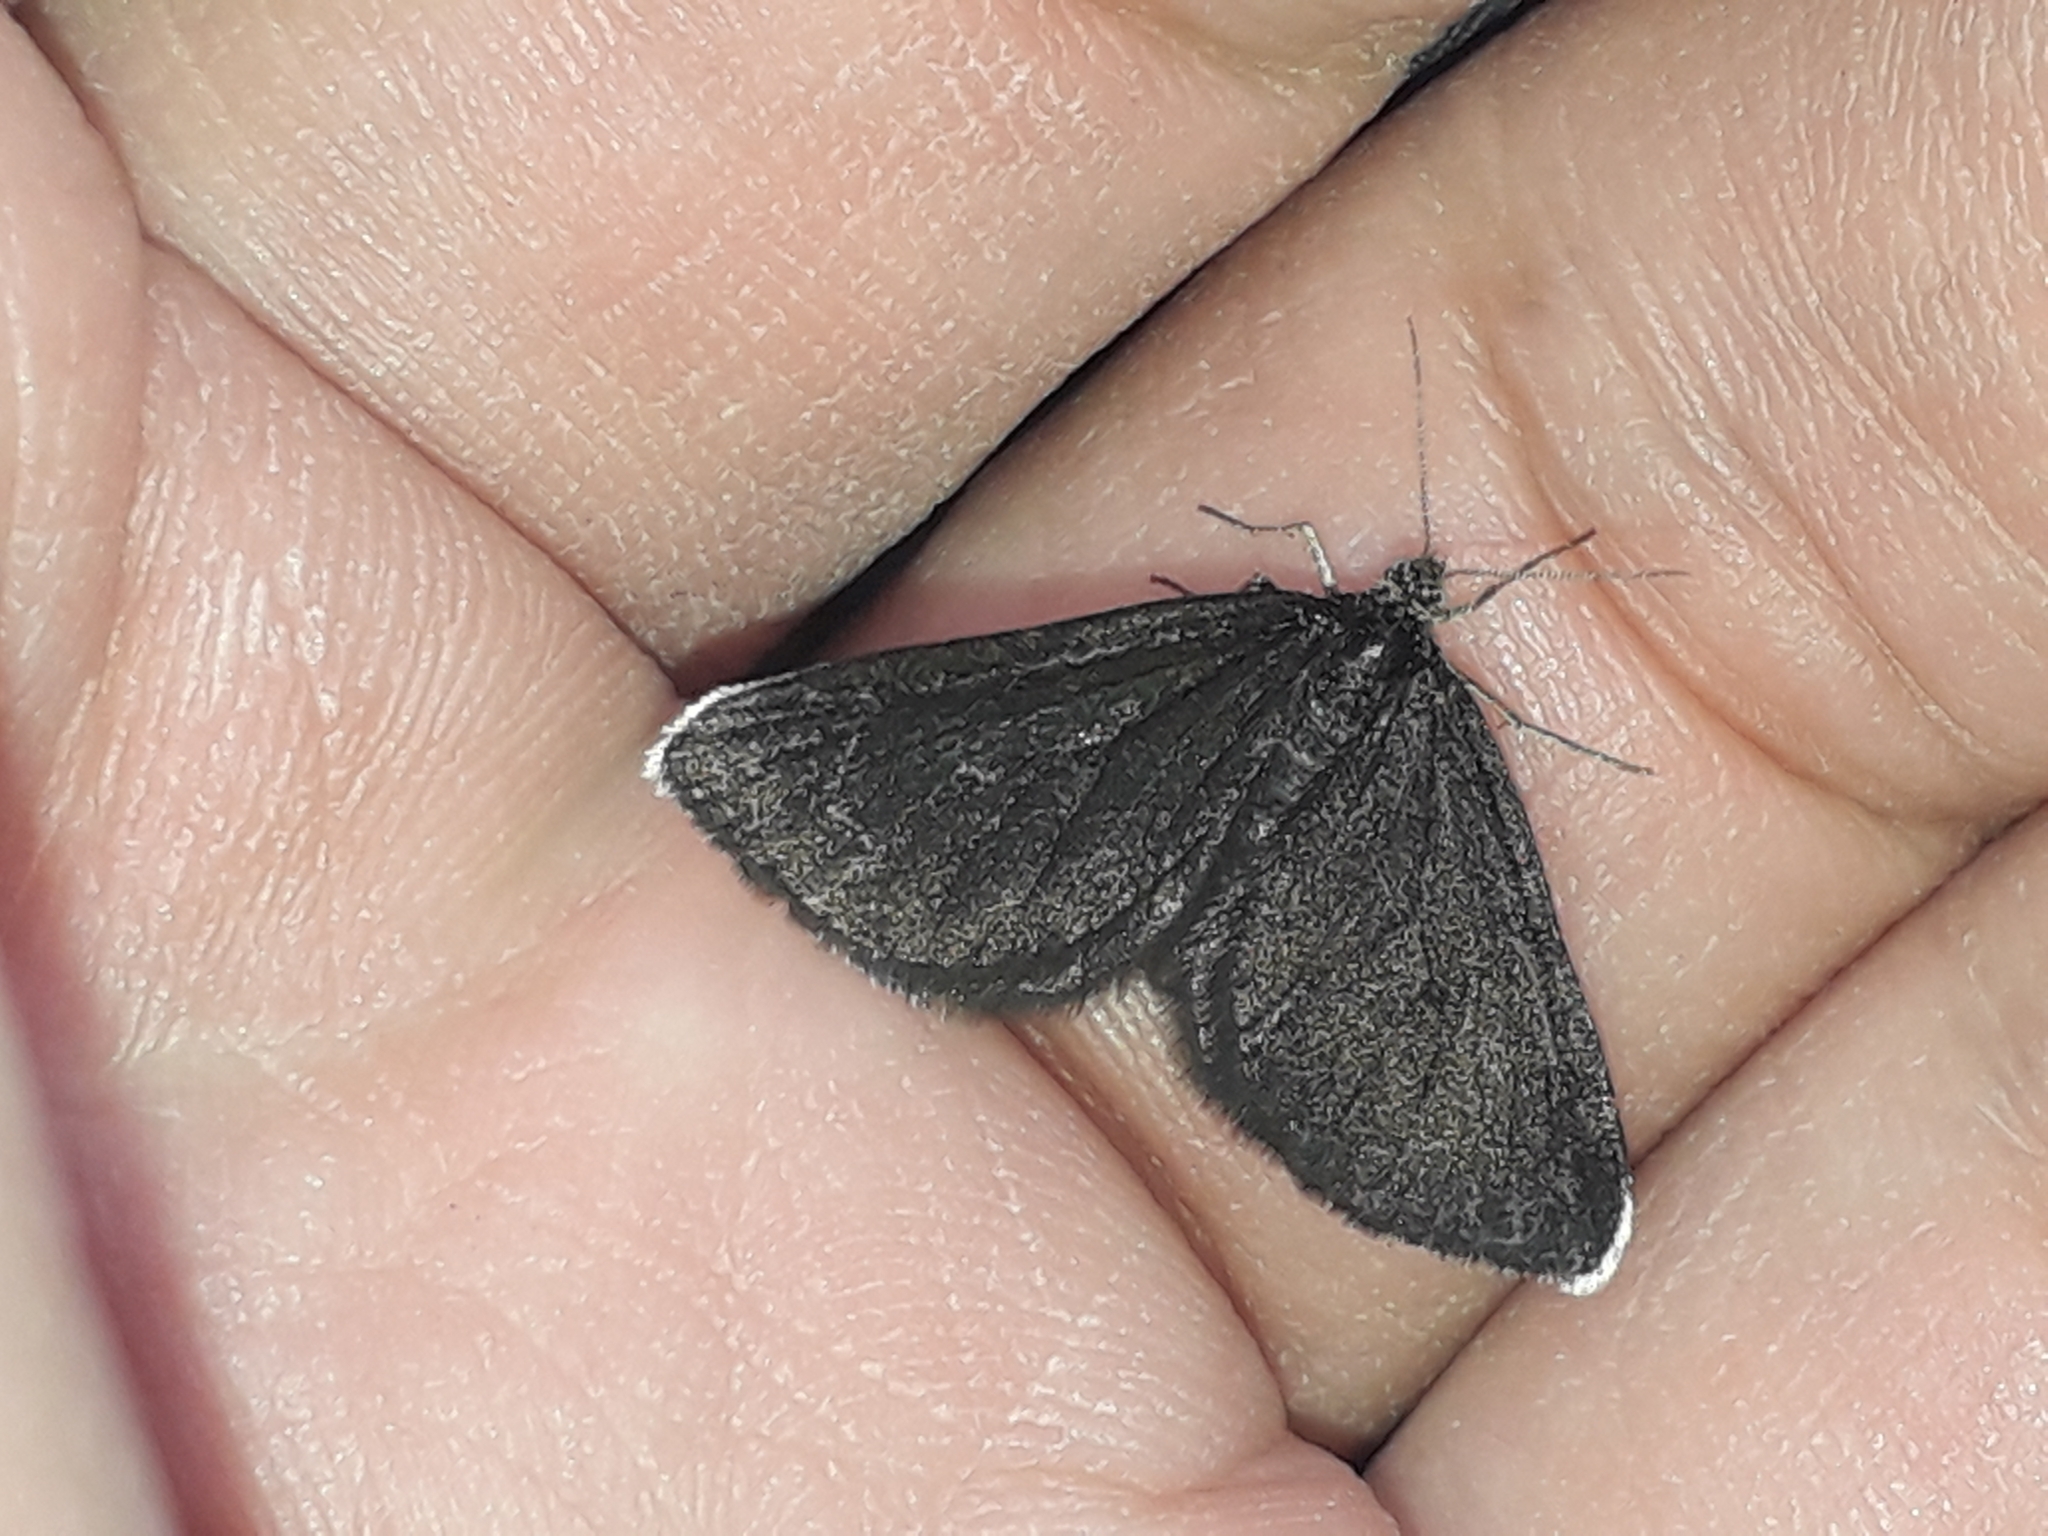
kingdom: Animalia
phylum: Arthropoda
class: Insecta
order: Lepidoptera
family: Geometridae
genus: Odezia
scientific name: Odezia atrata
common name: Chimney sweeper
